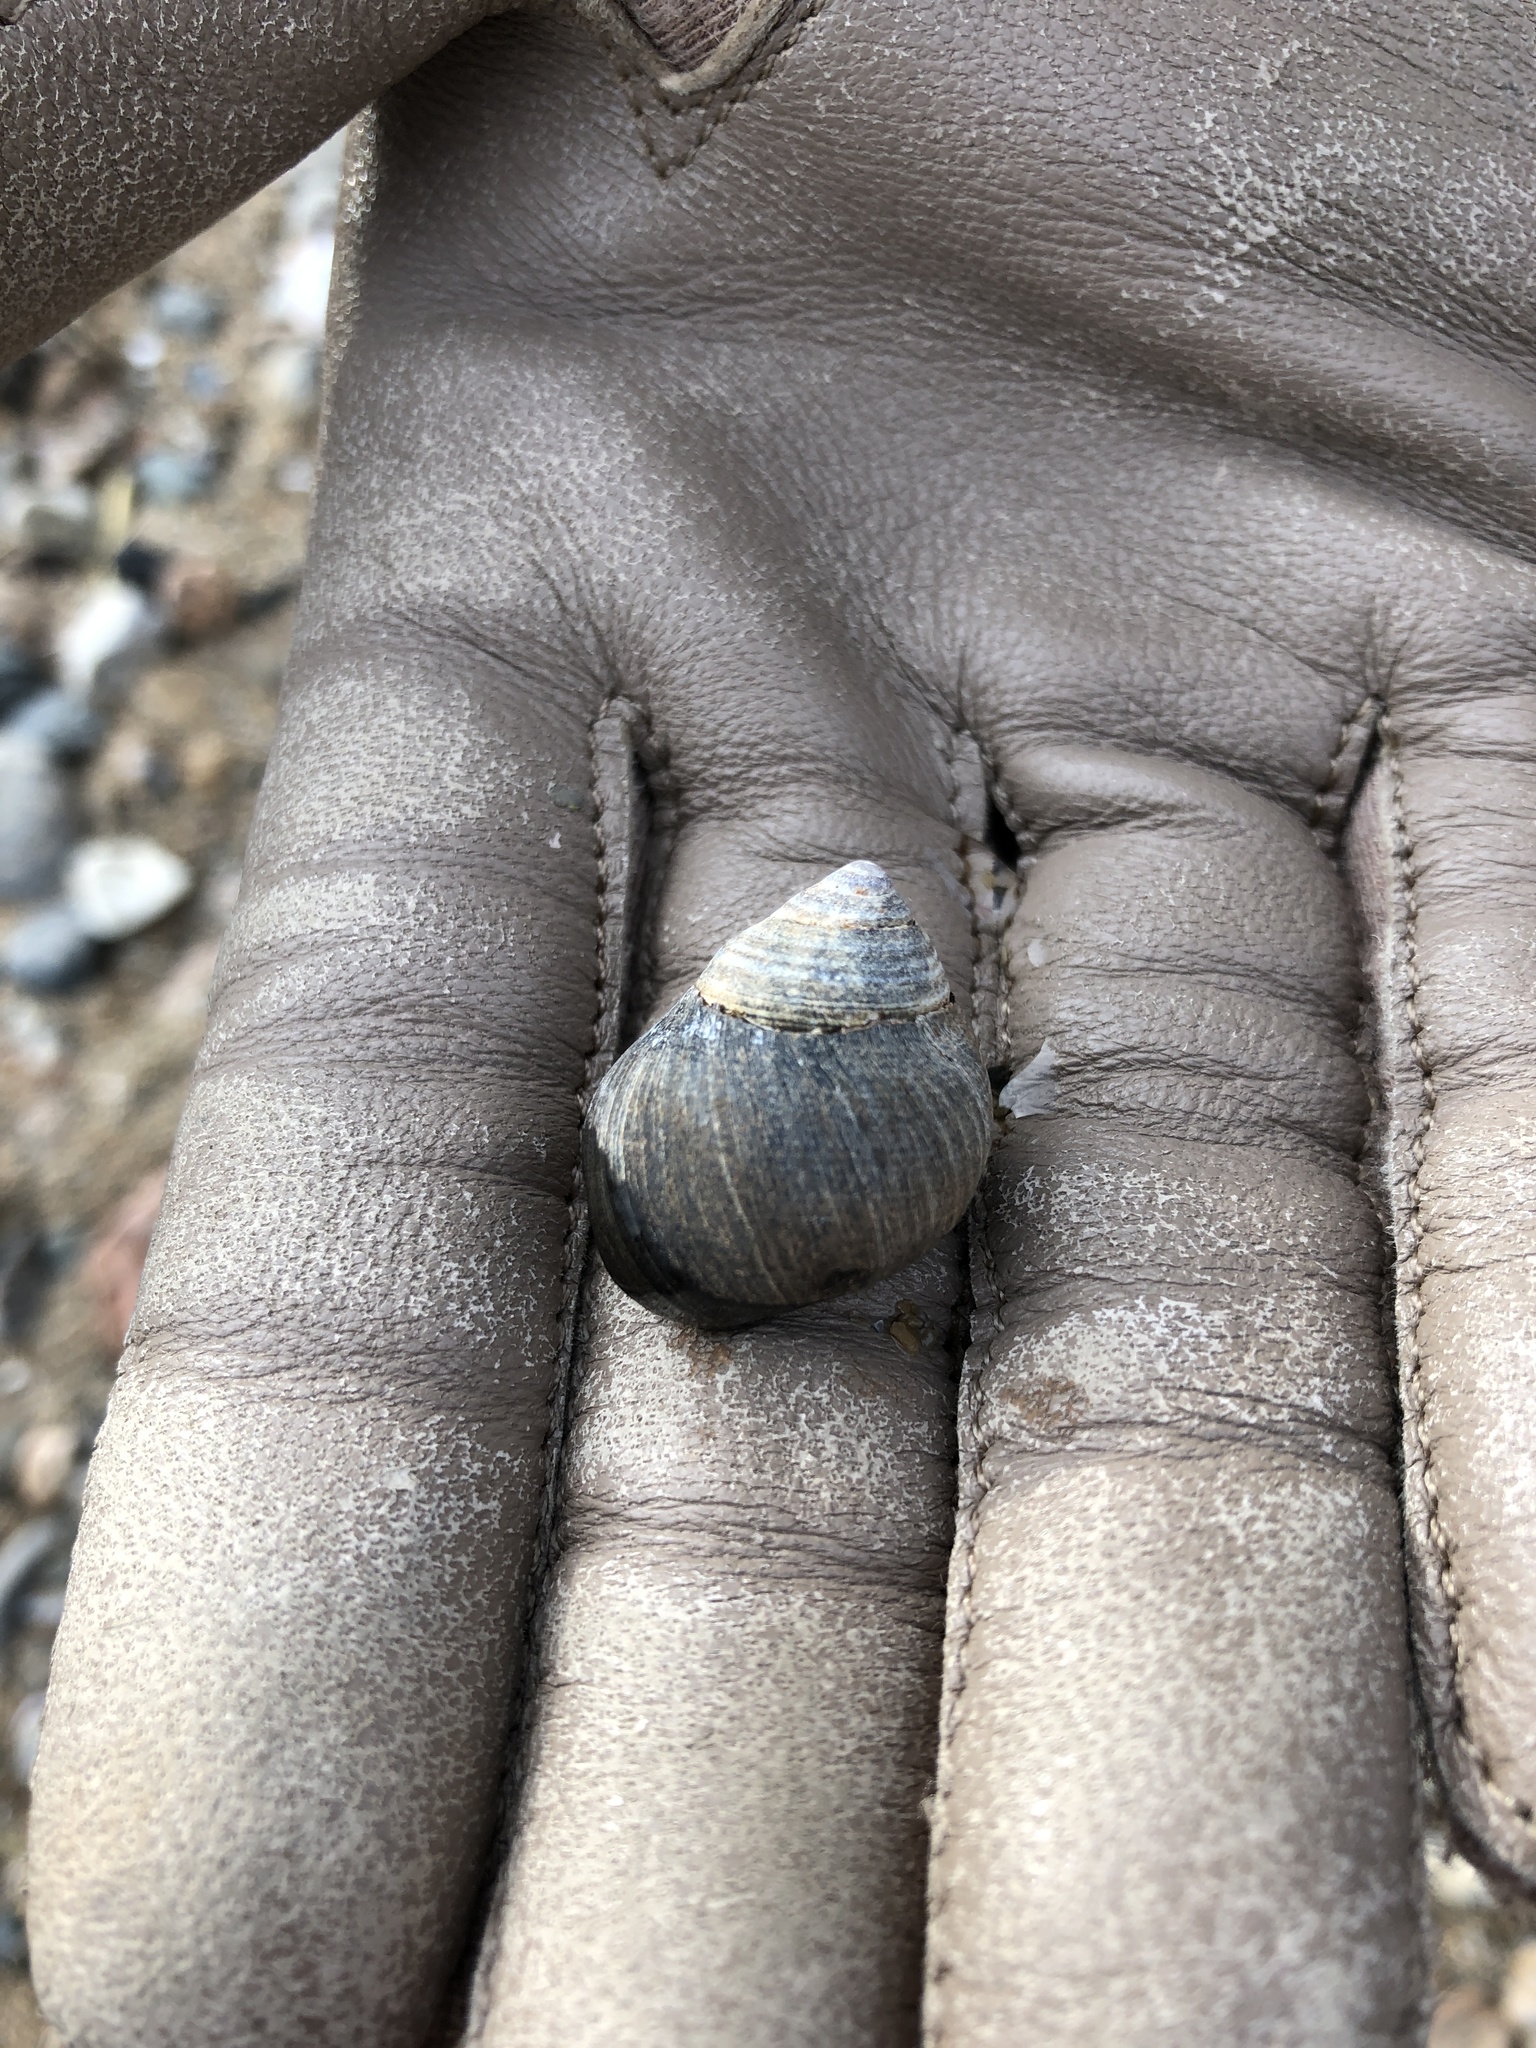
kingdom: Animalia
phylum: Mollusca
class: Gastropoda
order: Littorinimorpha
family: Littorinidae
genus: Littorina
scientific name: Littorina littorea
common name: Common periwinkle
